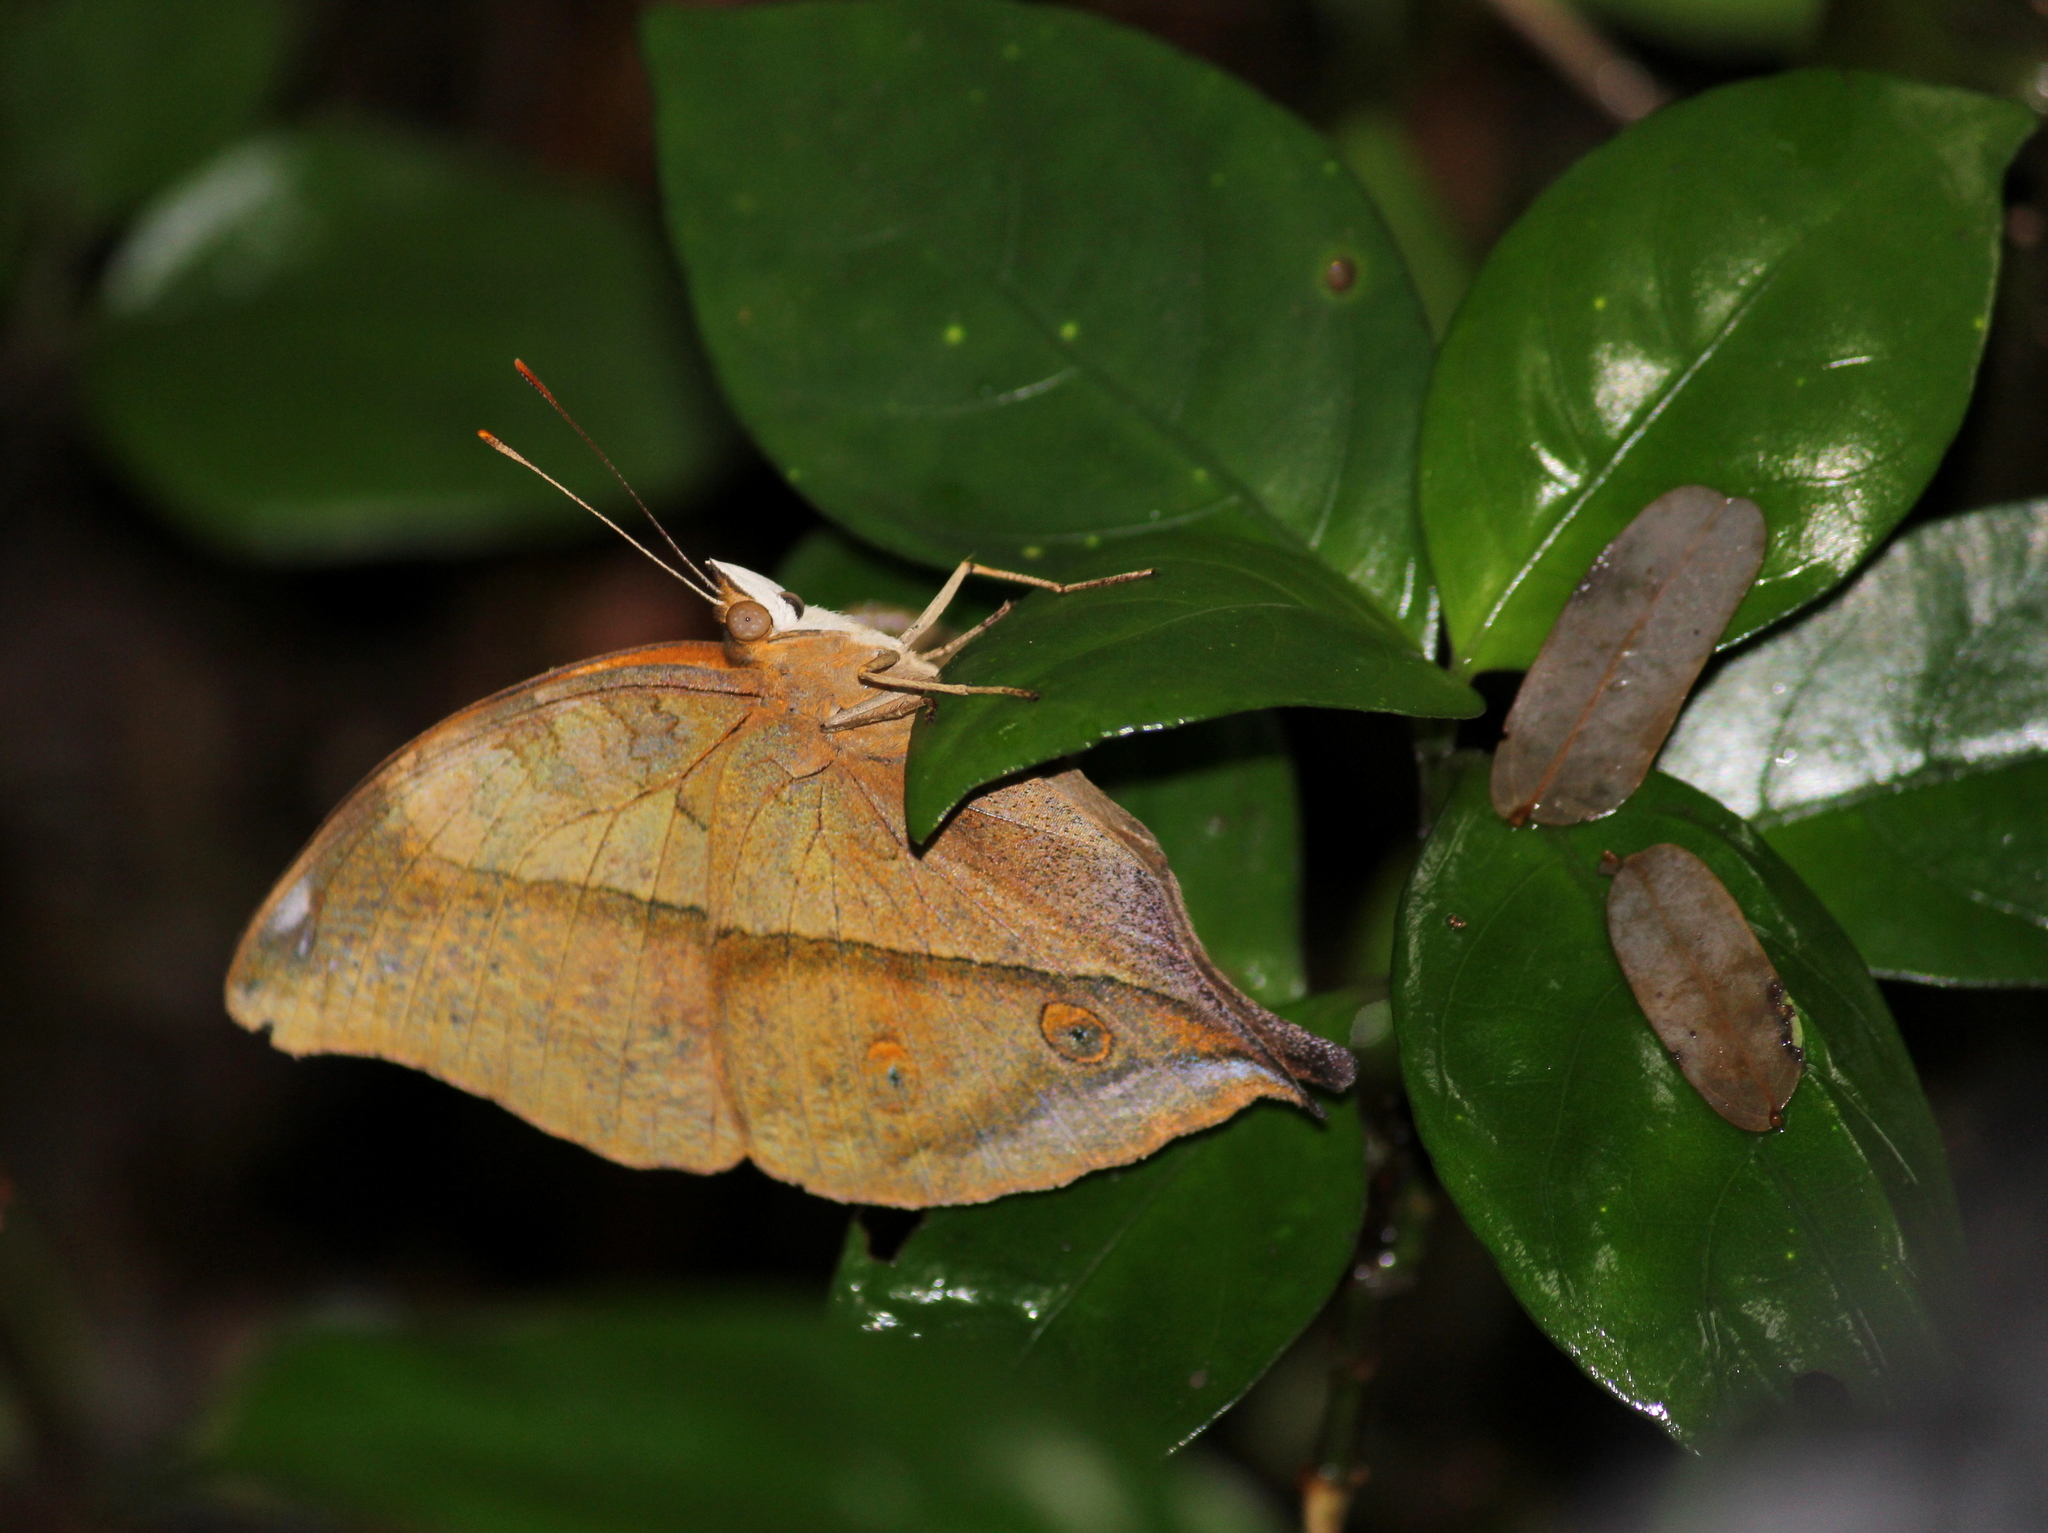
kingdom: Animalia
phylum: Arthropoda
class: Insecta
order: Lepidoptera
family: Nymphalidae
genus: Doleschallia
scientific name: Doleschallia bisaltide
